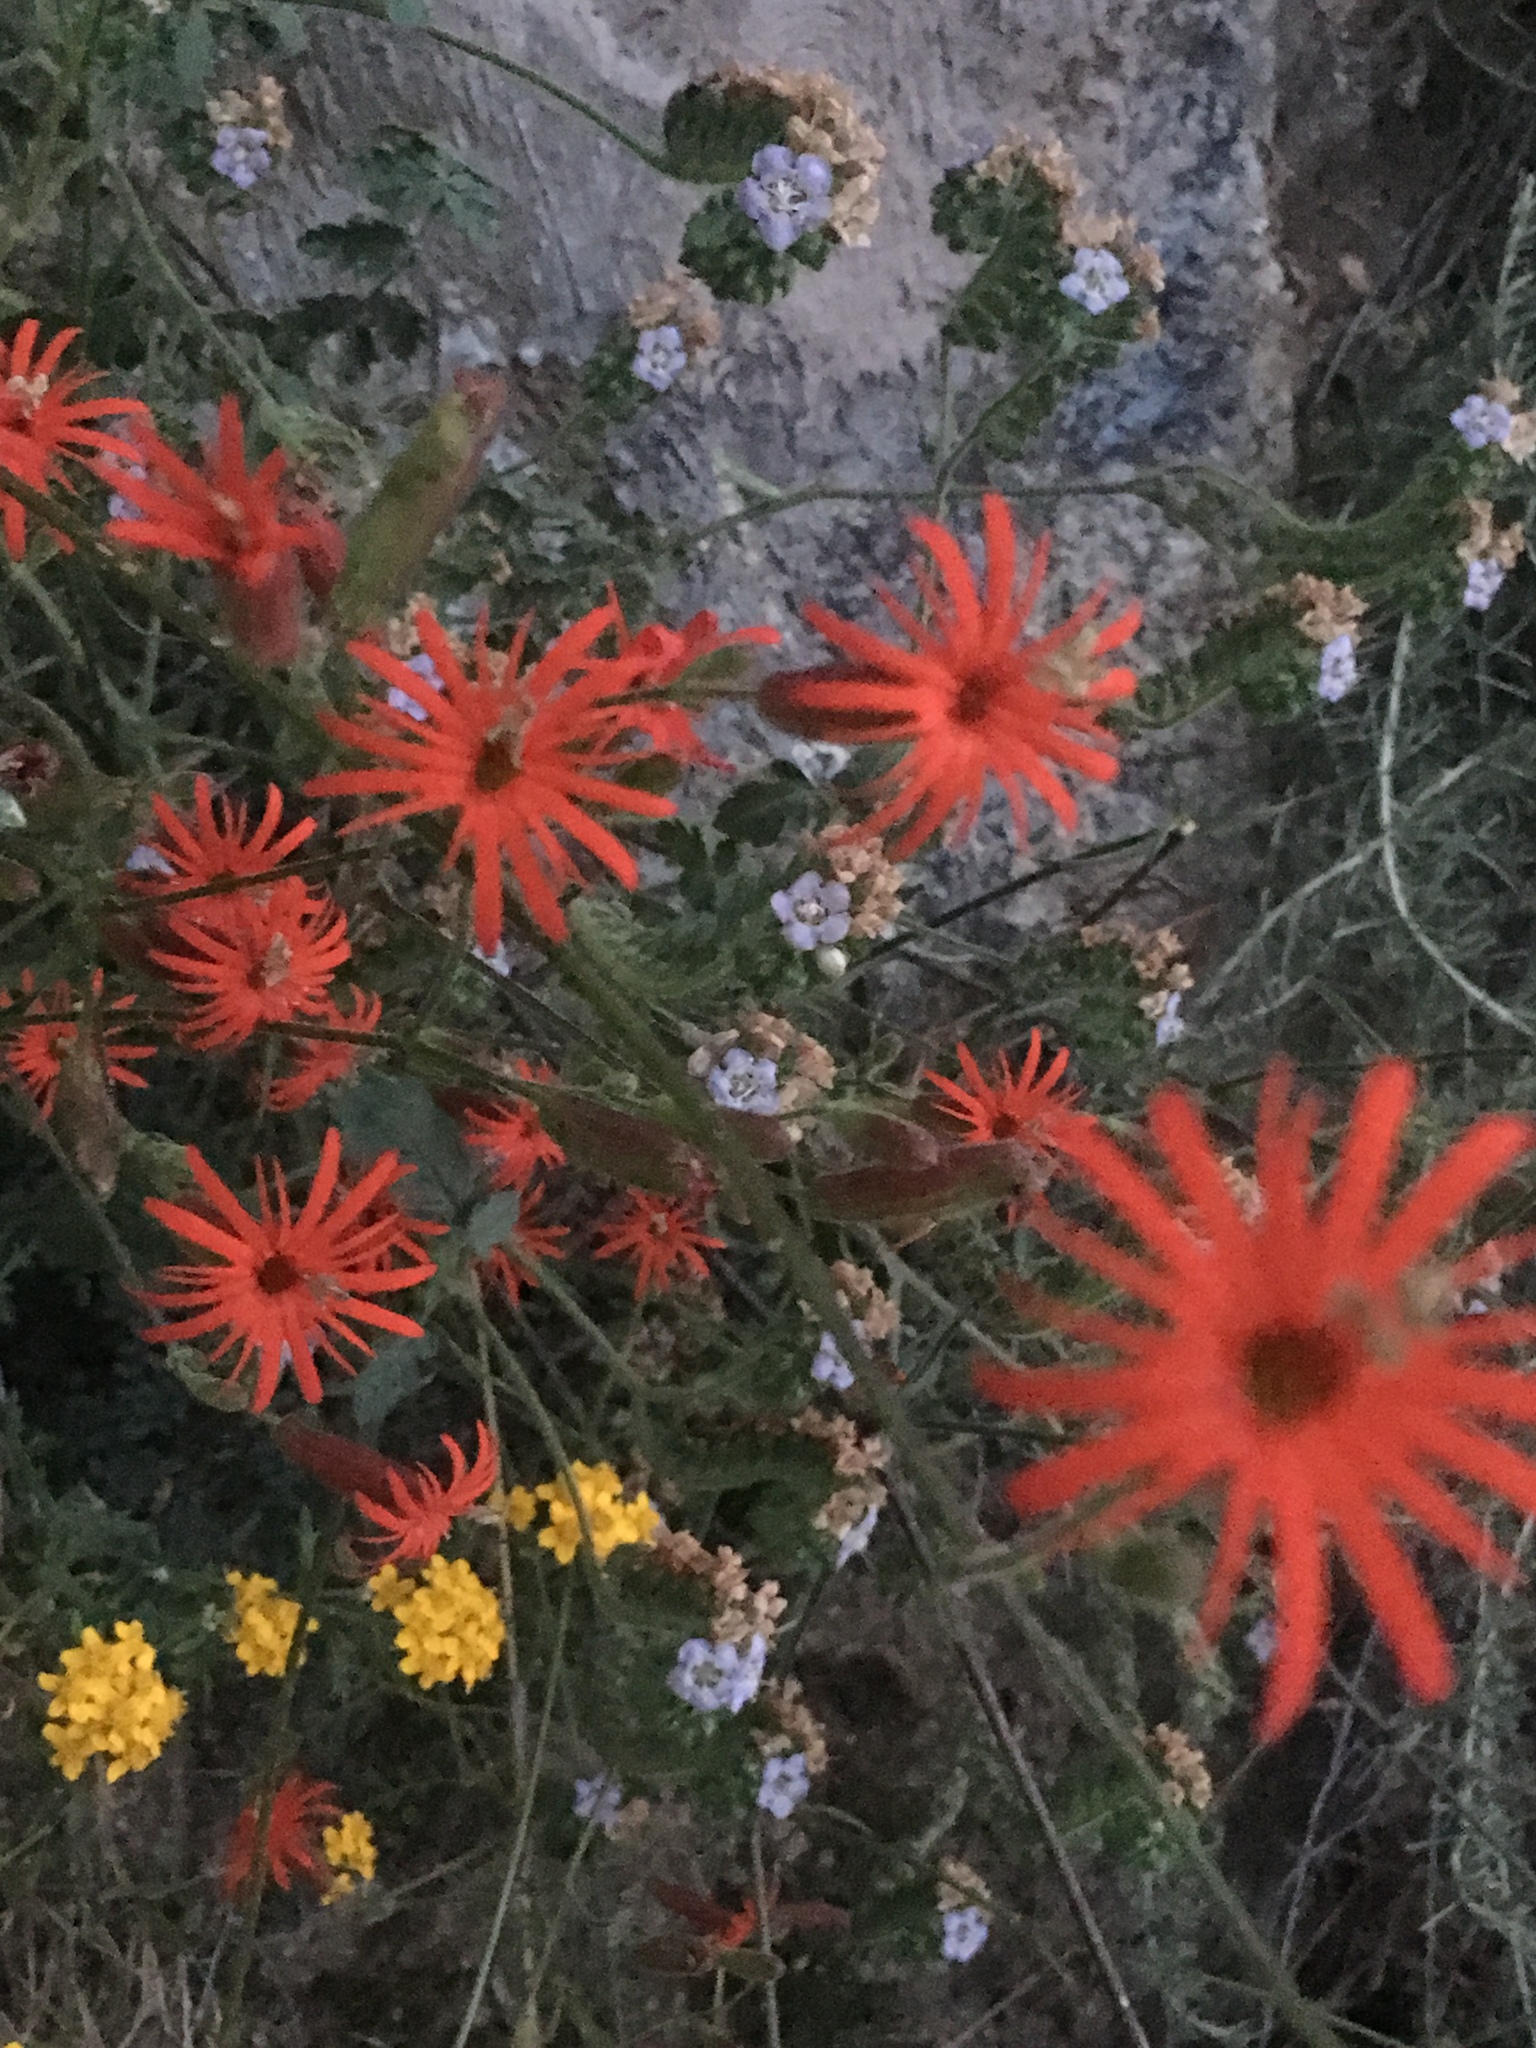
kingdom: Plantae
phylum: Tracheophyta
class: Magnoliopsida
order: Caryophyllales
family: Caryophyllaceae
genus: Silene
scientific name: Silene laciniata
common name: Indian-pink
